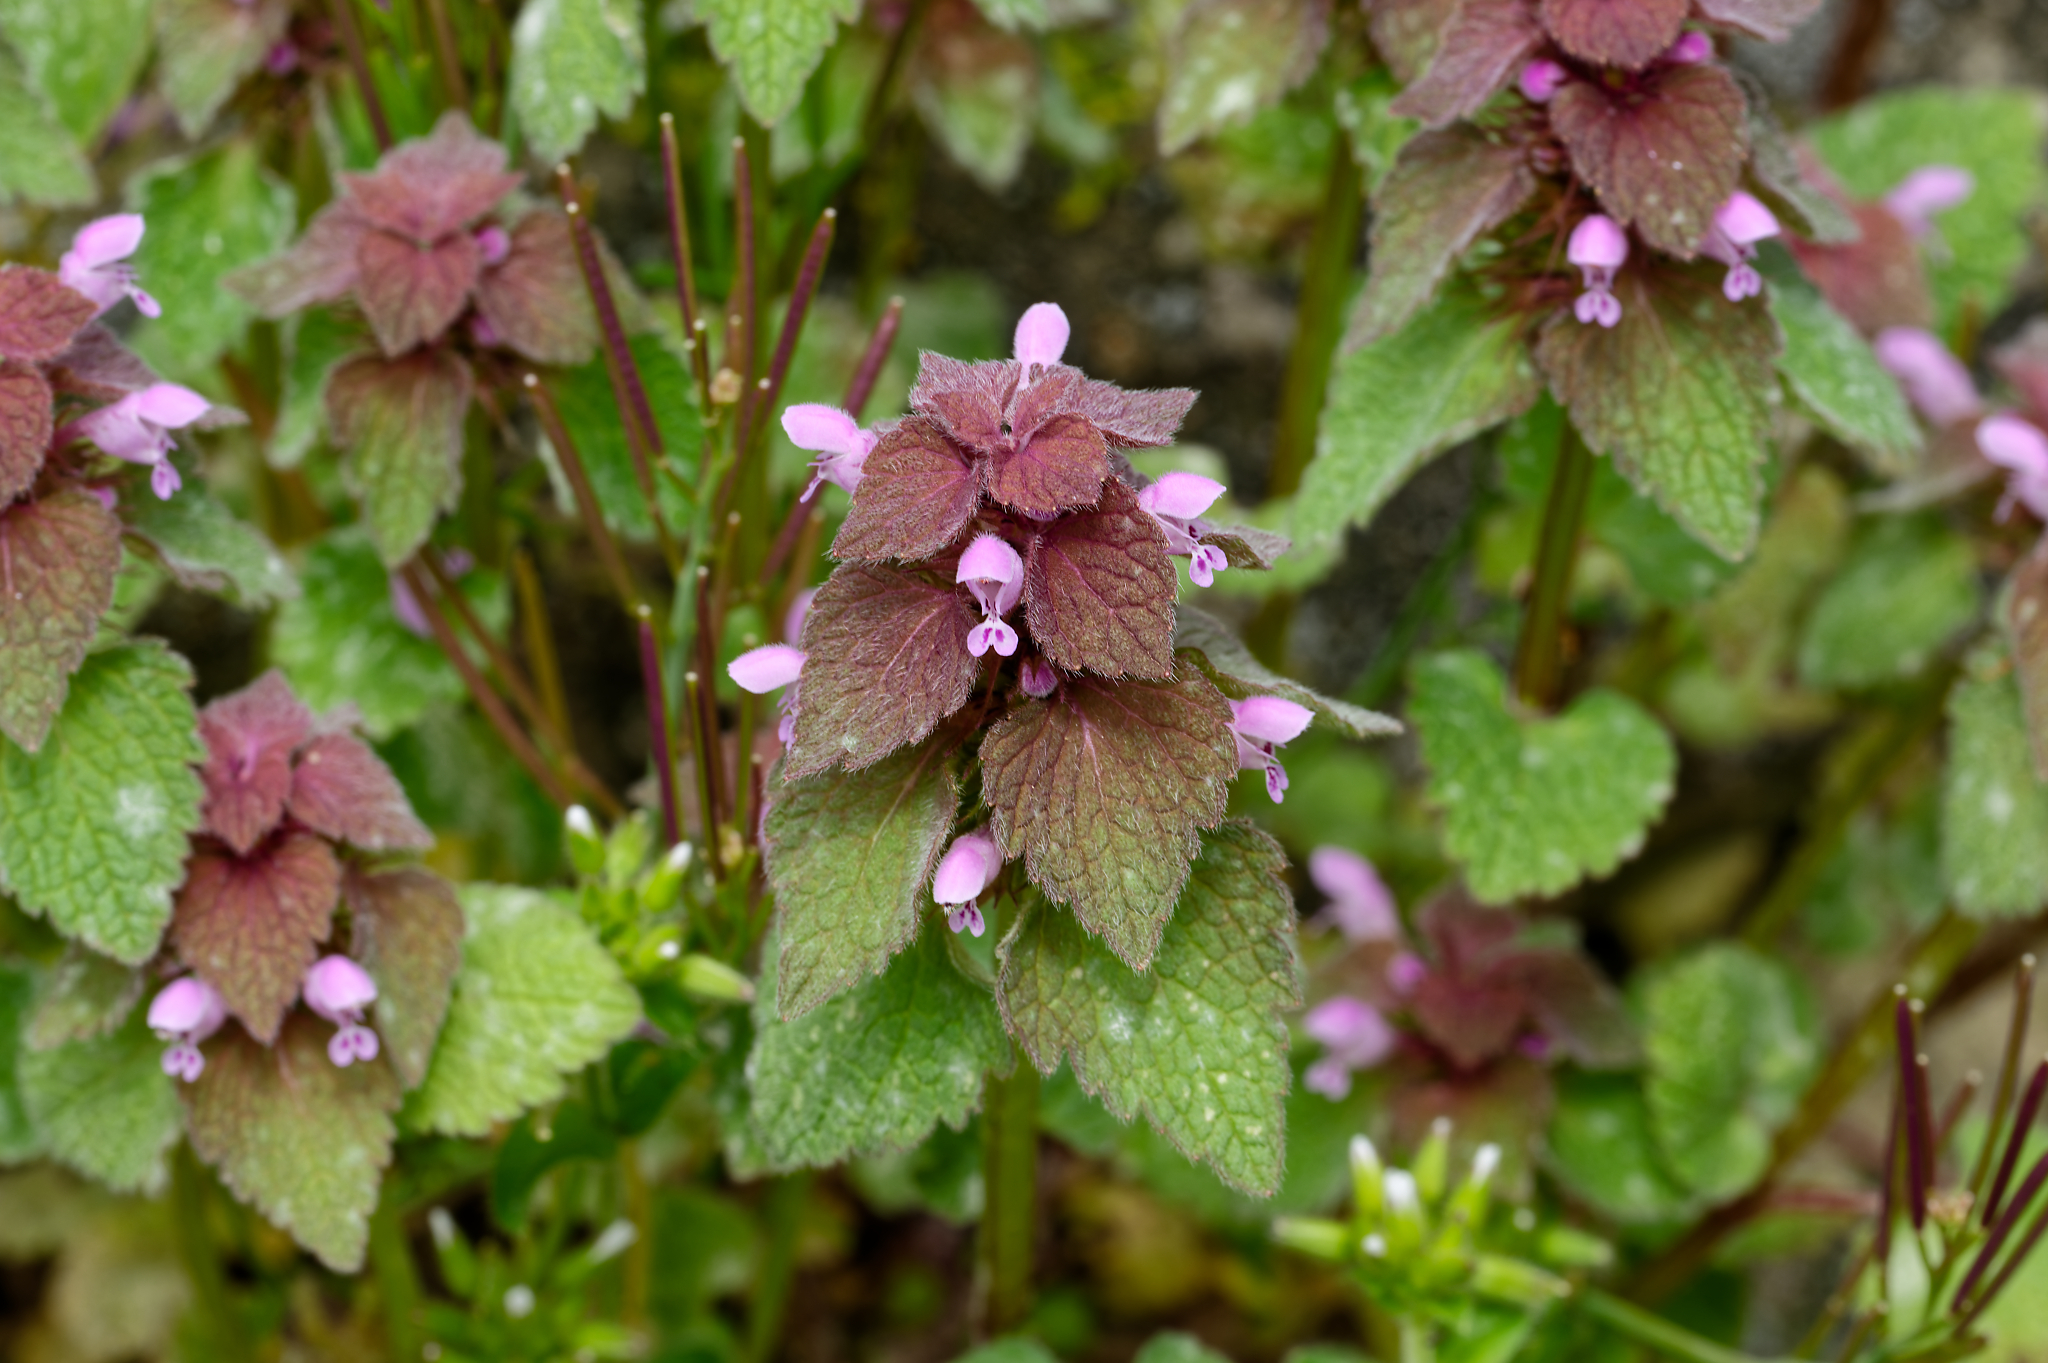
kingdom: Plantae
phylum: Tracheophyta
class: Magnoliopsida
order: Lamiales
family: Lamiaceae
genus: Lamium
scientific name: Lamium purpureum
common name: Red dead-nettle
